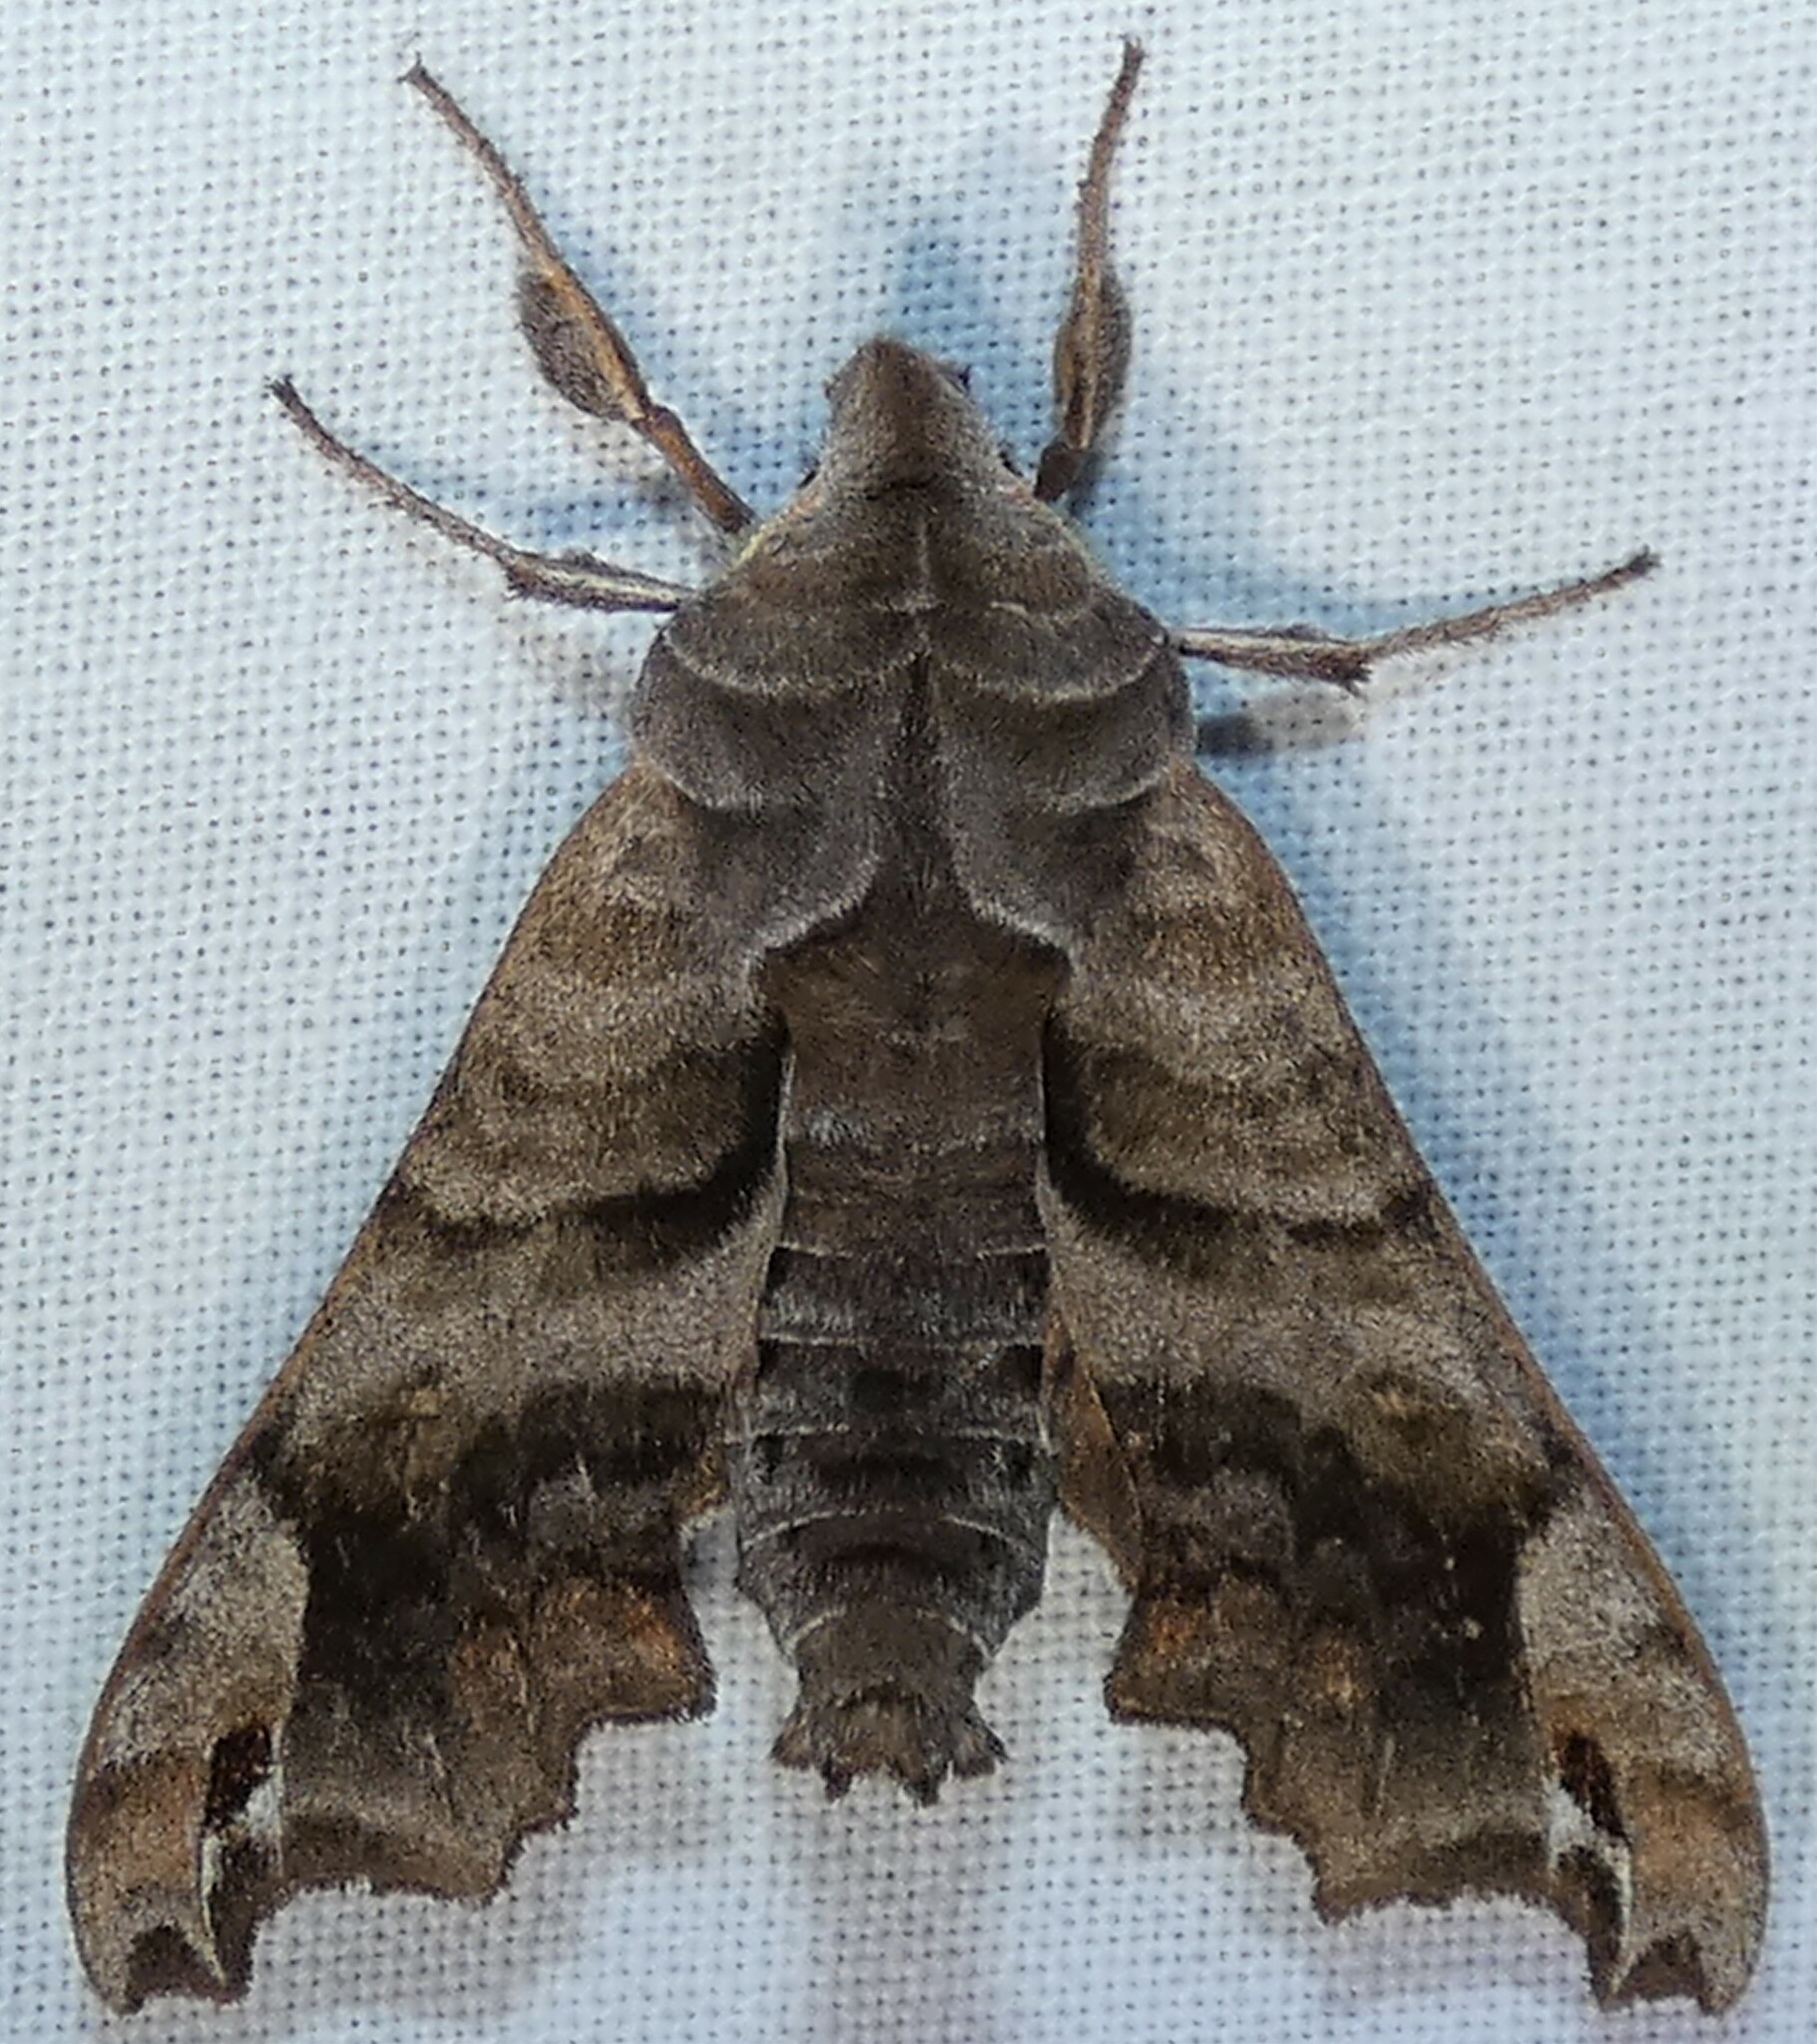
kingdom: Animalia
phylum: Arthropoda
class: Insecta
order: Lepidoptera
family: Sphingidae
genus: Deidamia
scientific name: Deidamia inscriptum
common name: Lettered sphinx
